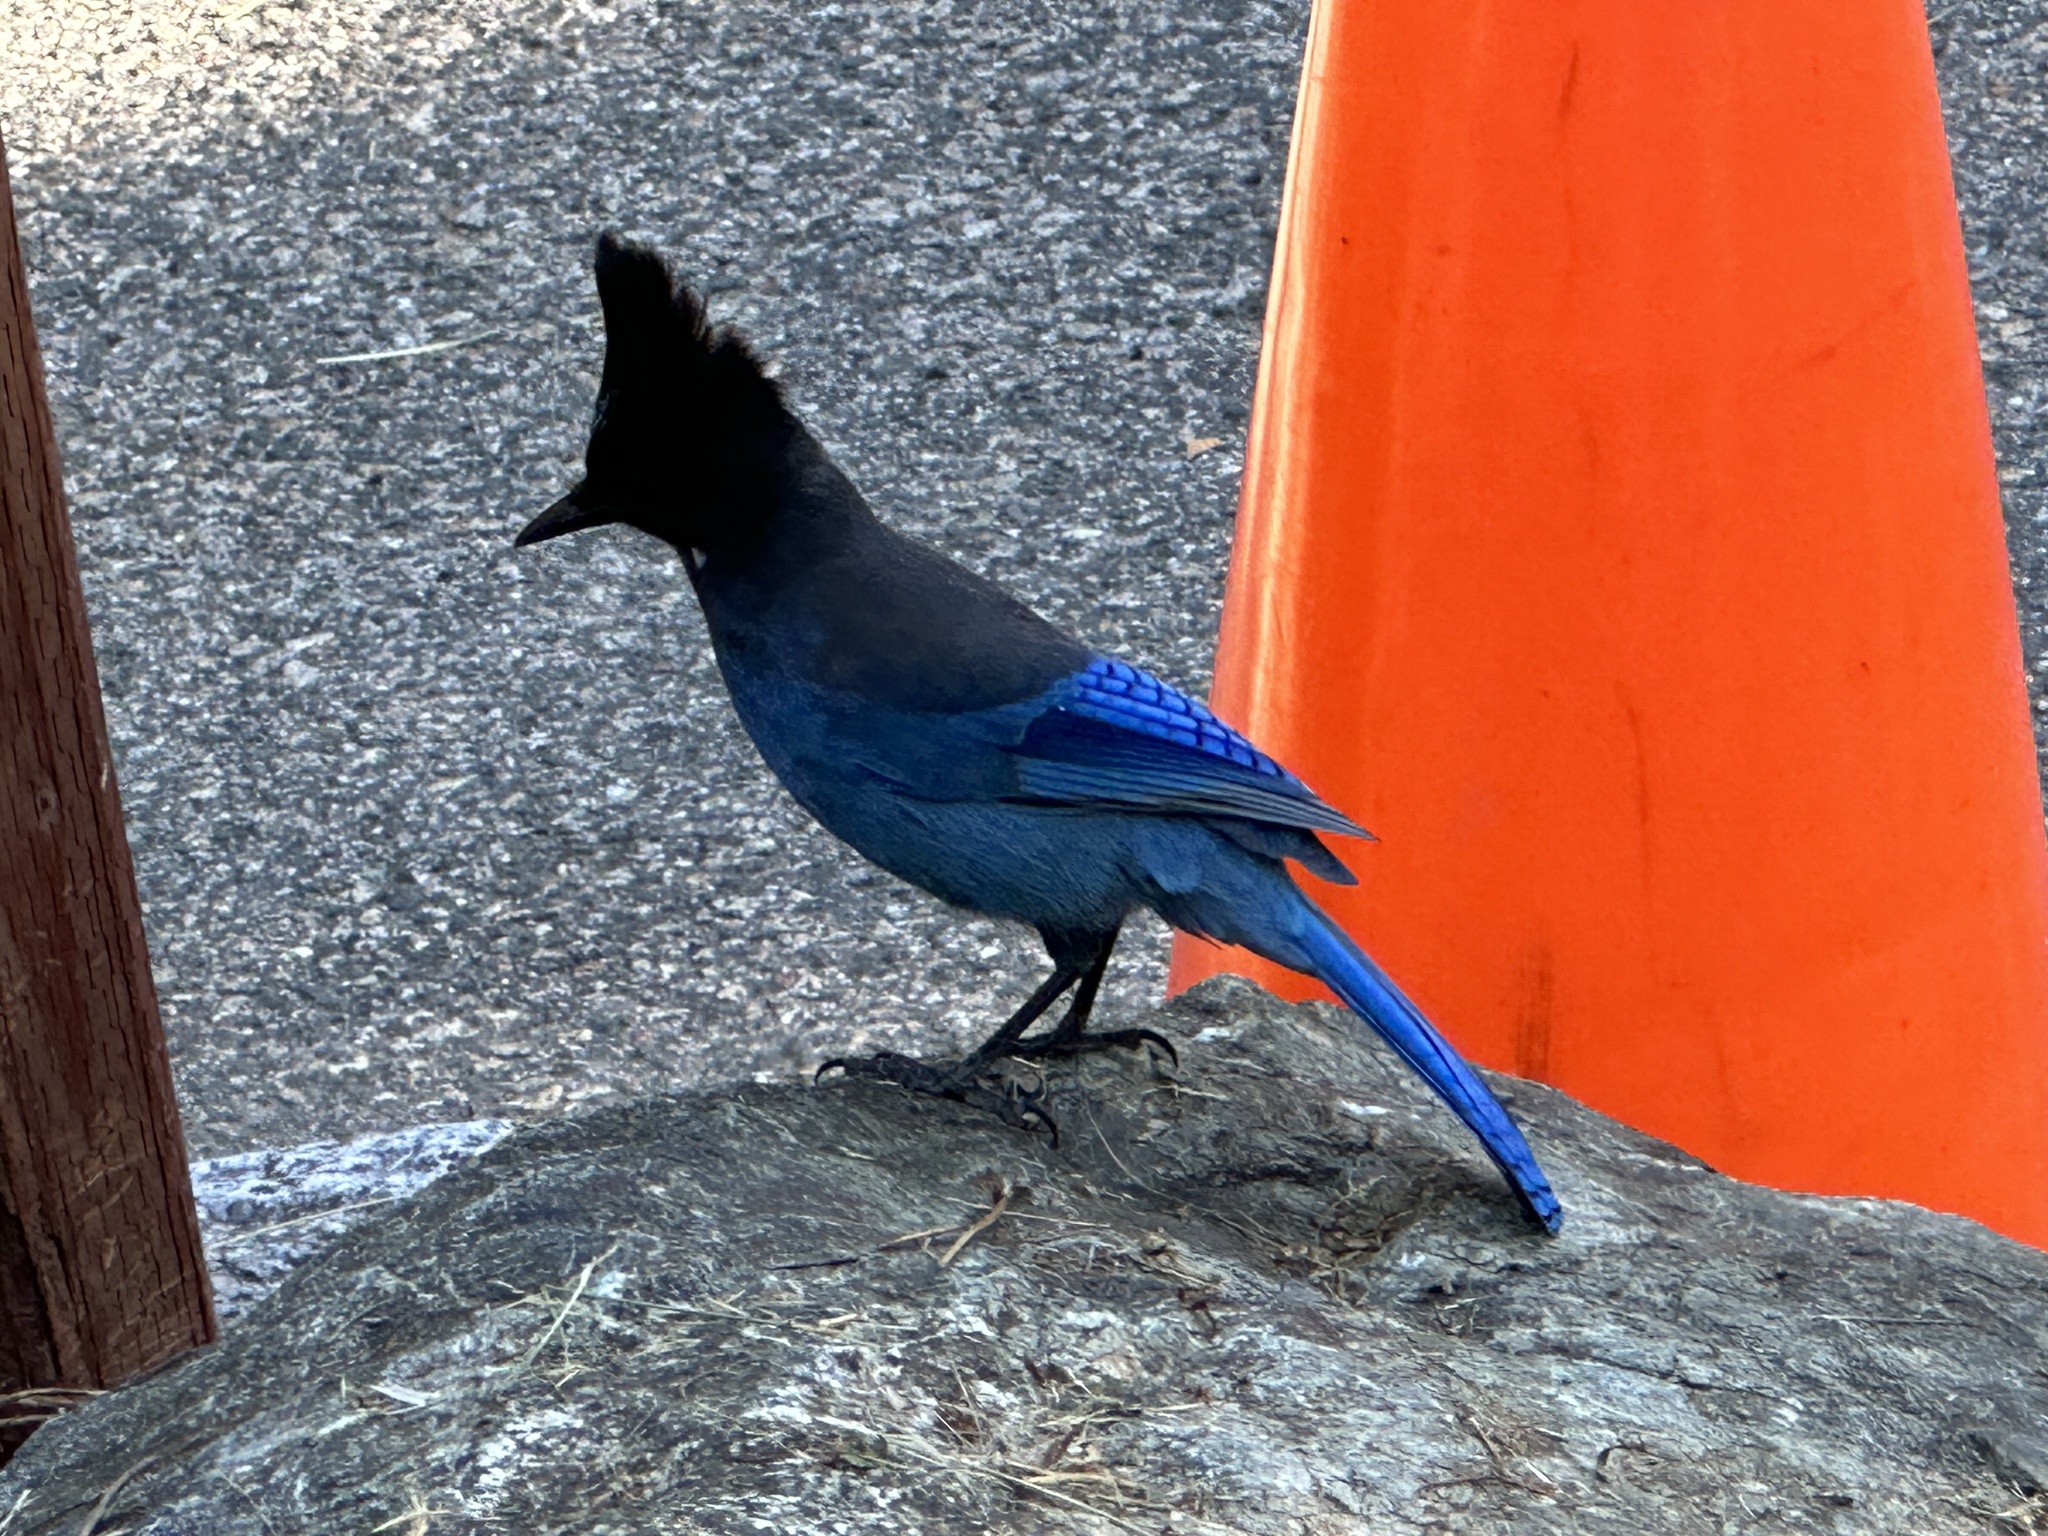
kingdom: Animalia
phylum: Chordata
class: Aves
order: Passeriformes
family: Corvidae
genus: Cyanocitta
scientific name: Cyanocitta stelleri
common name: Steller's jay
